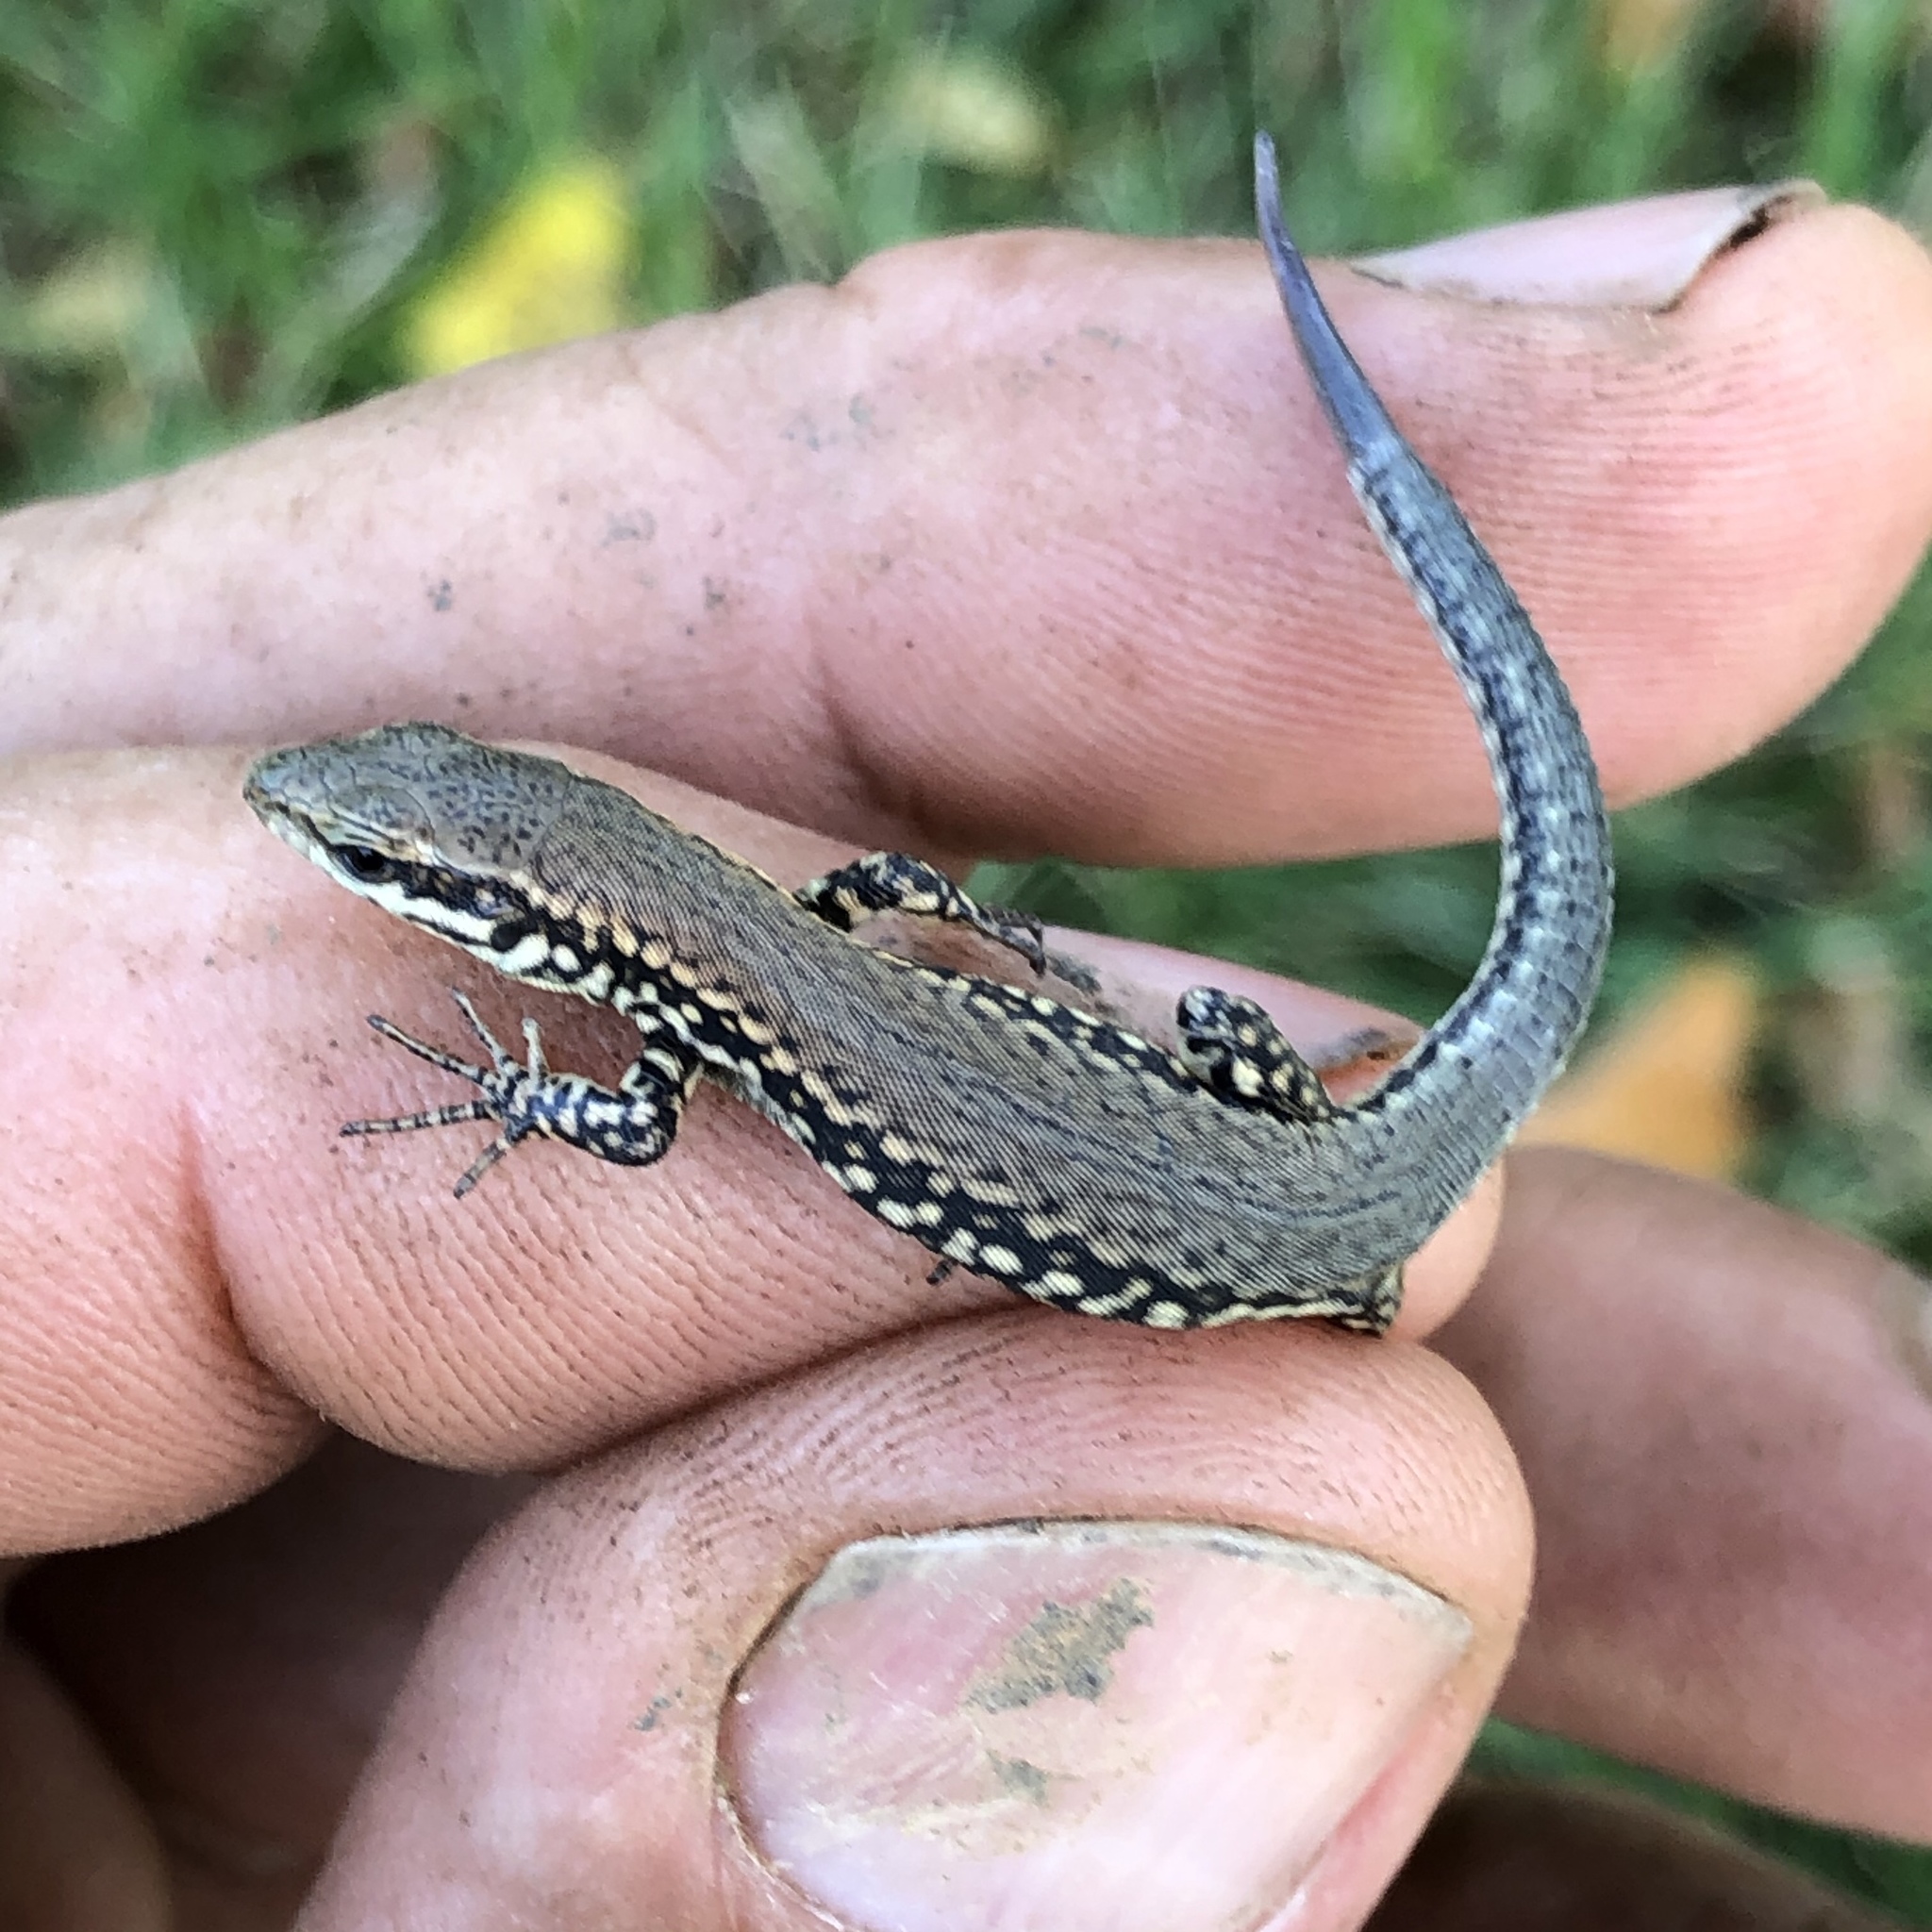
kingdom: Animalia
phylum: Chordata
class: Squamata
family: Lacertidae
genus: Podarcis
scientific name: Podarcis muralis
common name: Common wall lizard
